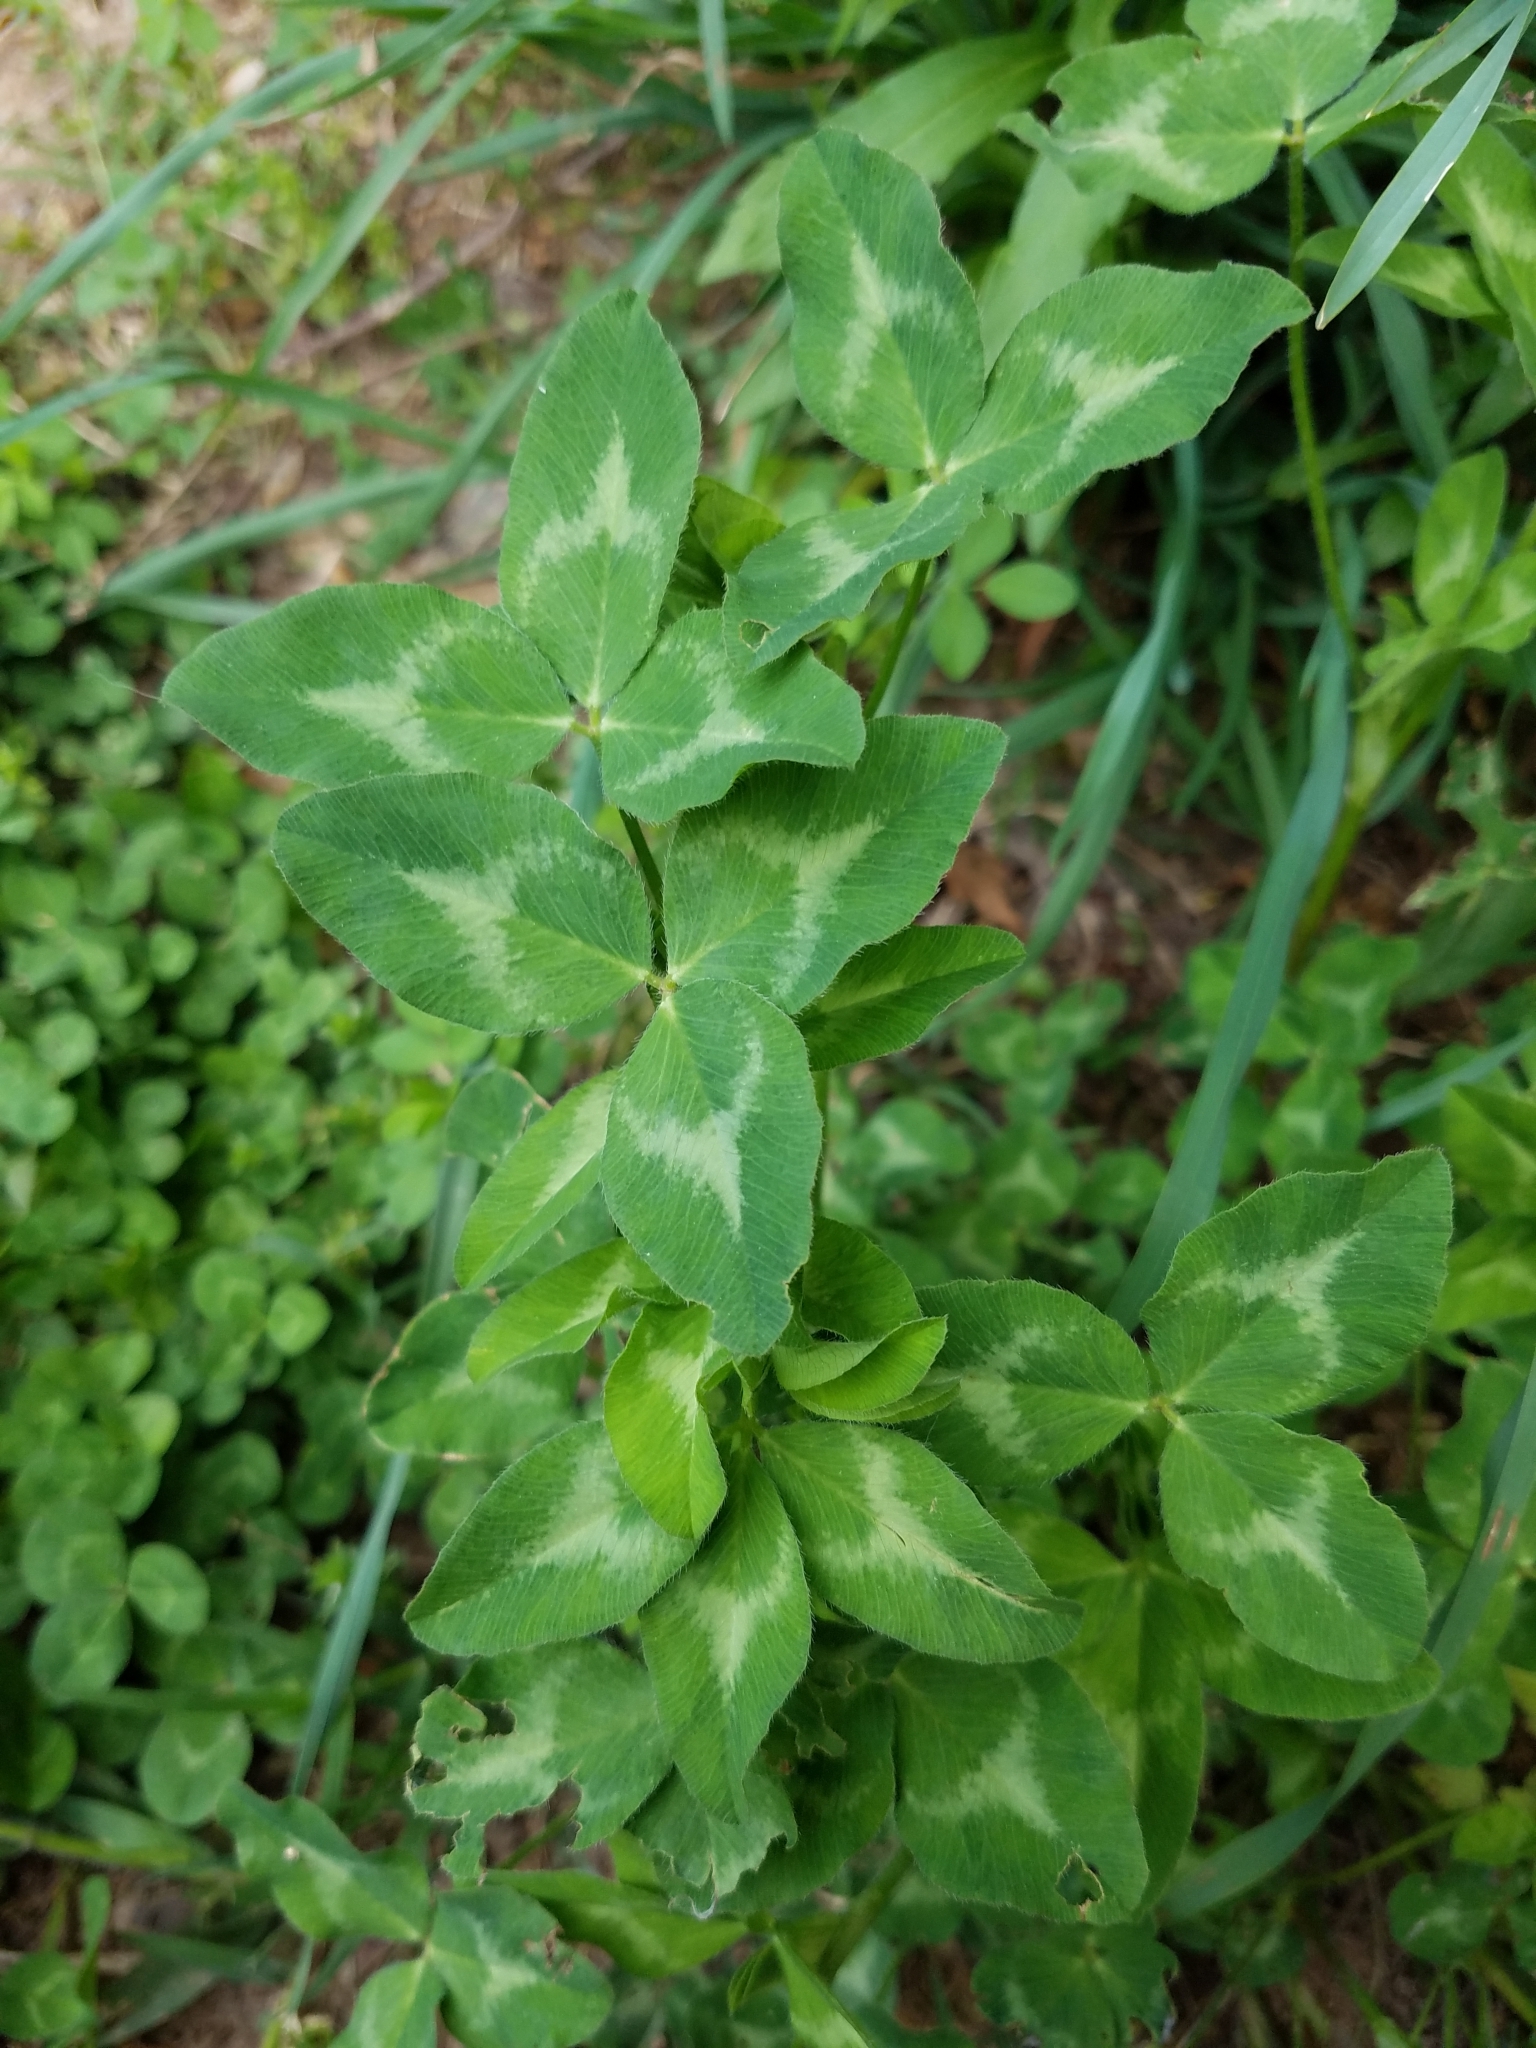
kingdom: Plantae
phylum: Tracheophyta
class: Magnoliopsida
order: Fabales
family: Fabaceae
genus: Trifolium
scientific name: Trifolium pratense
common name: Red clover
